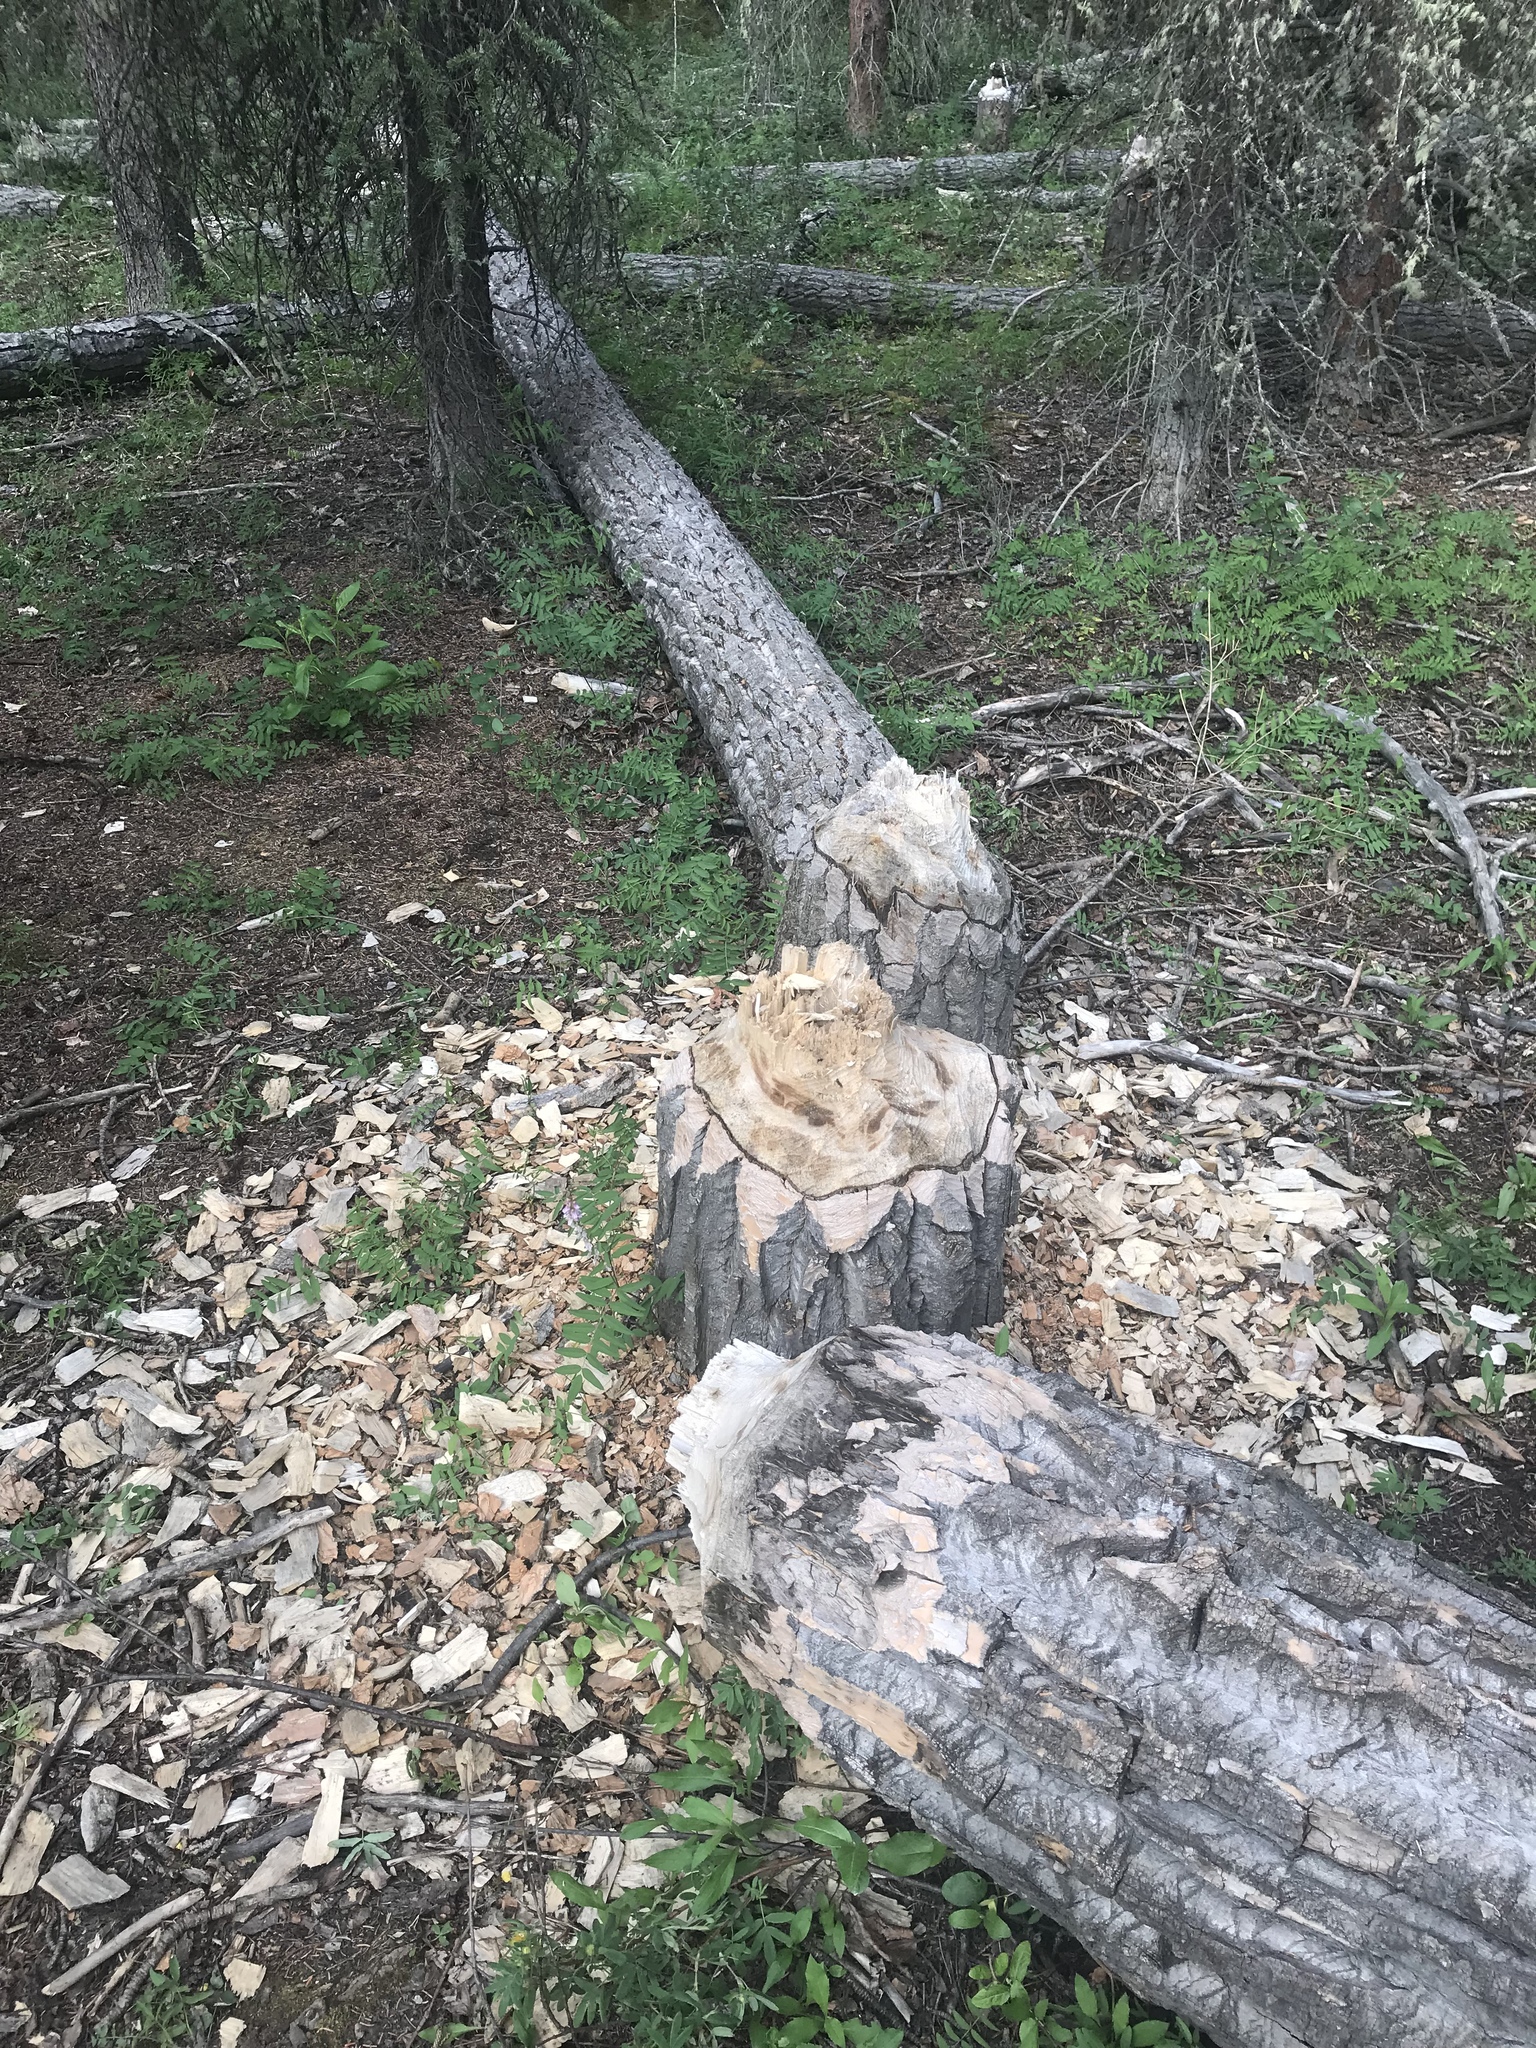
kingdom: Animalia
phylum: Chordata
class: Mammalia
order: Rodentia
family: Castoridae
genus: Castor
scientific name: Castor canadensis
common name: American beaver
